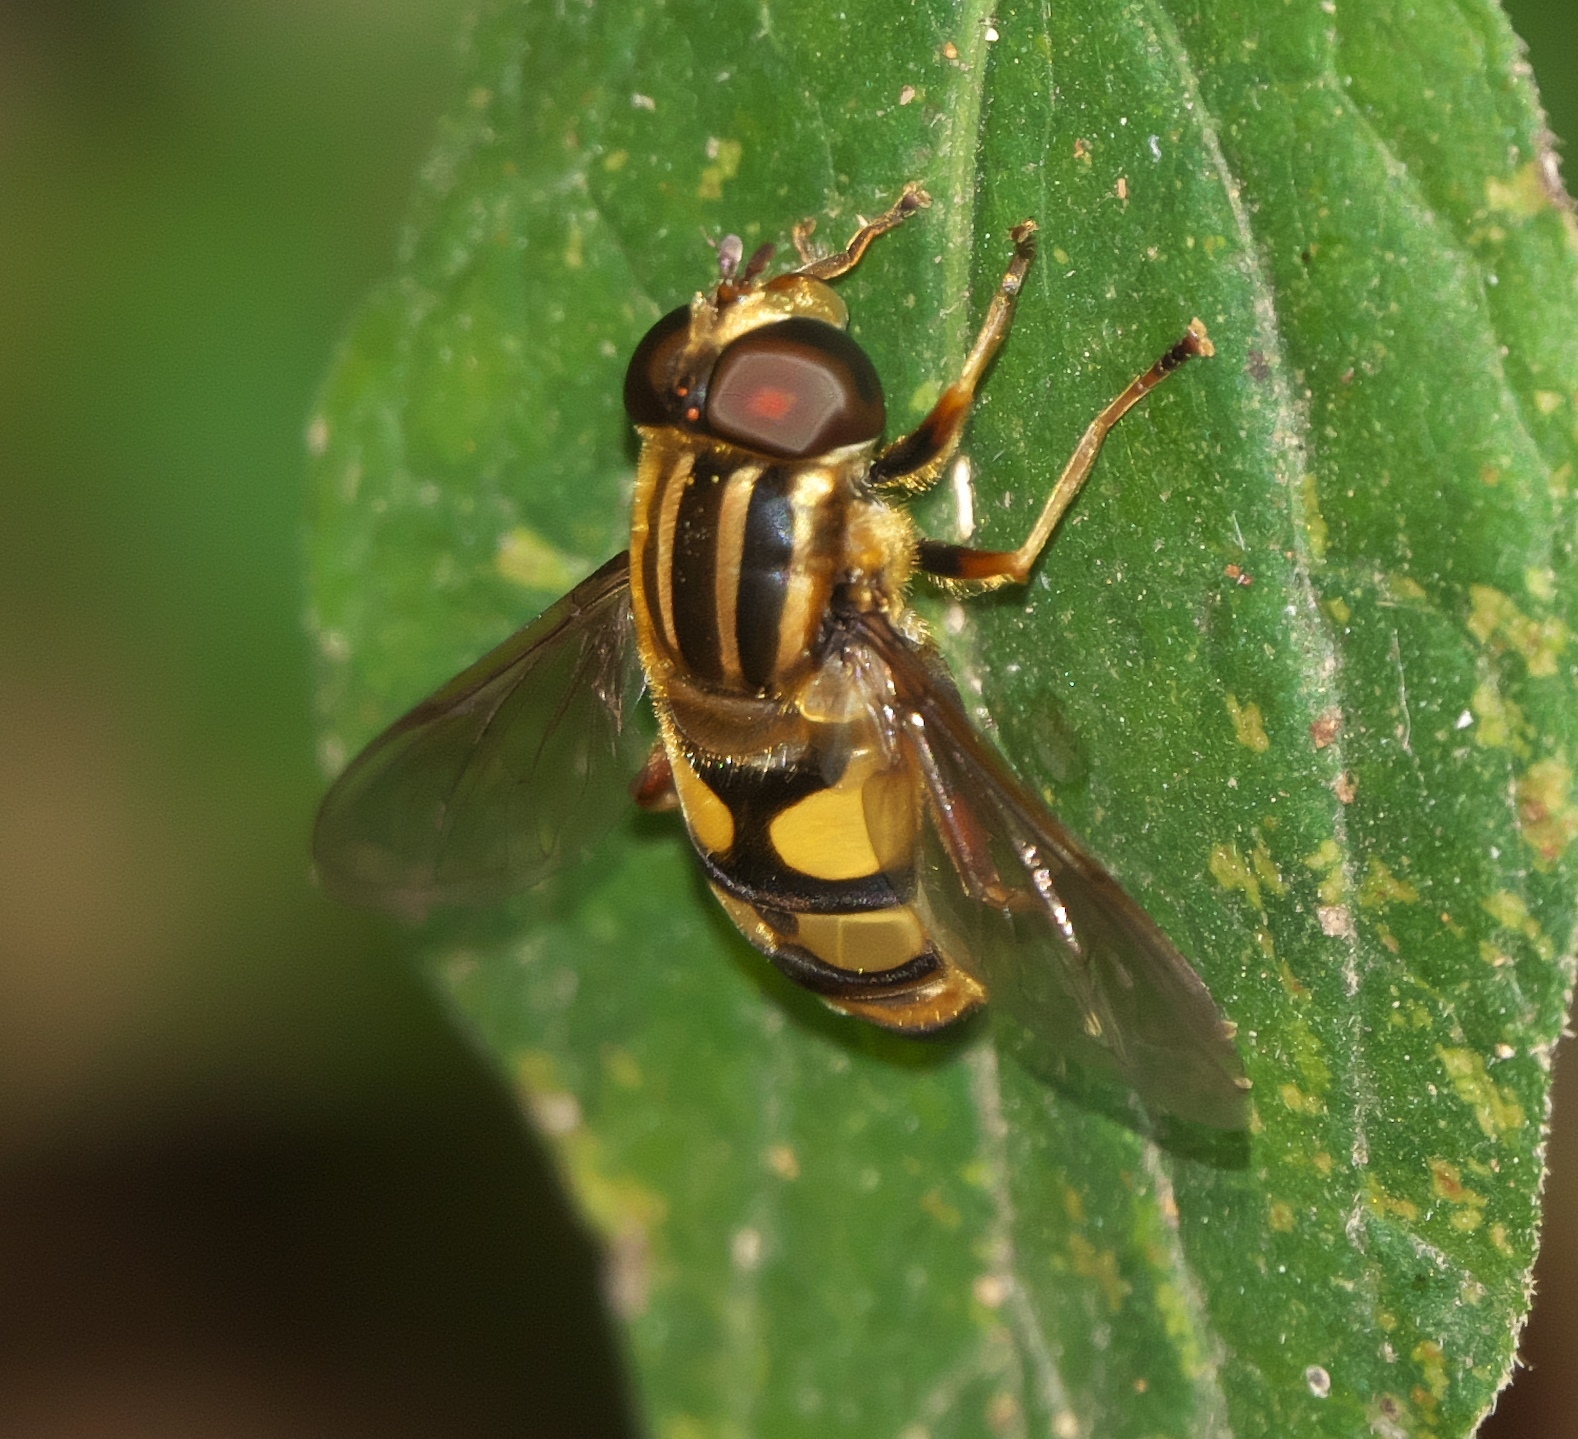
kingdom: Animalia
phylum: Arthropoda
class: Insecta
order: Diptera
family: Syrphidae
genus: Helophilus
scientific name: Helophilus fasciatus
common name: Narrow-headed marsh fly
